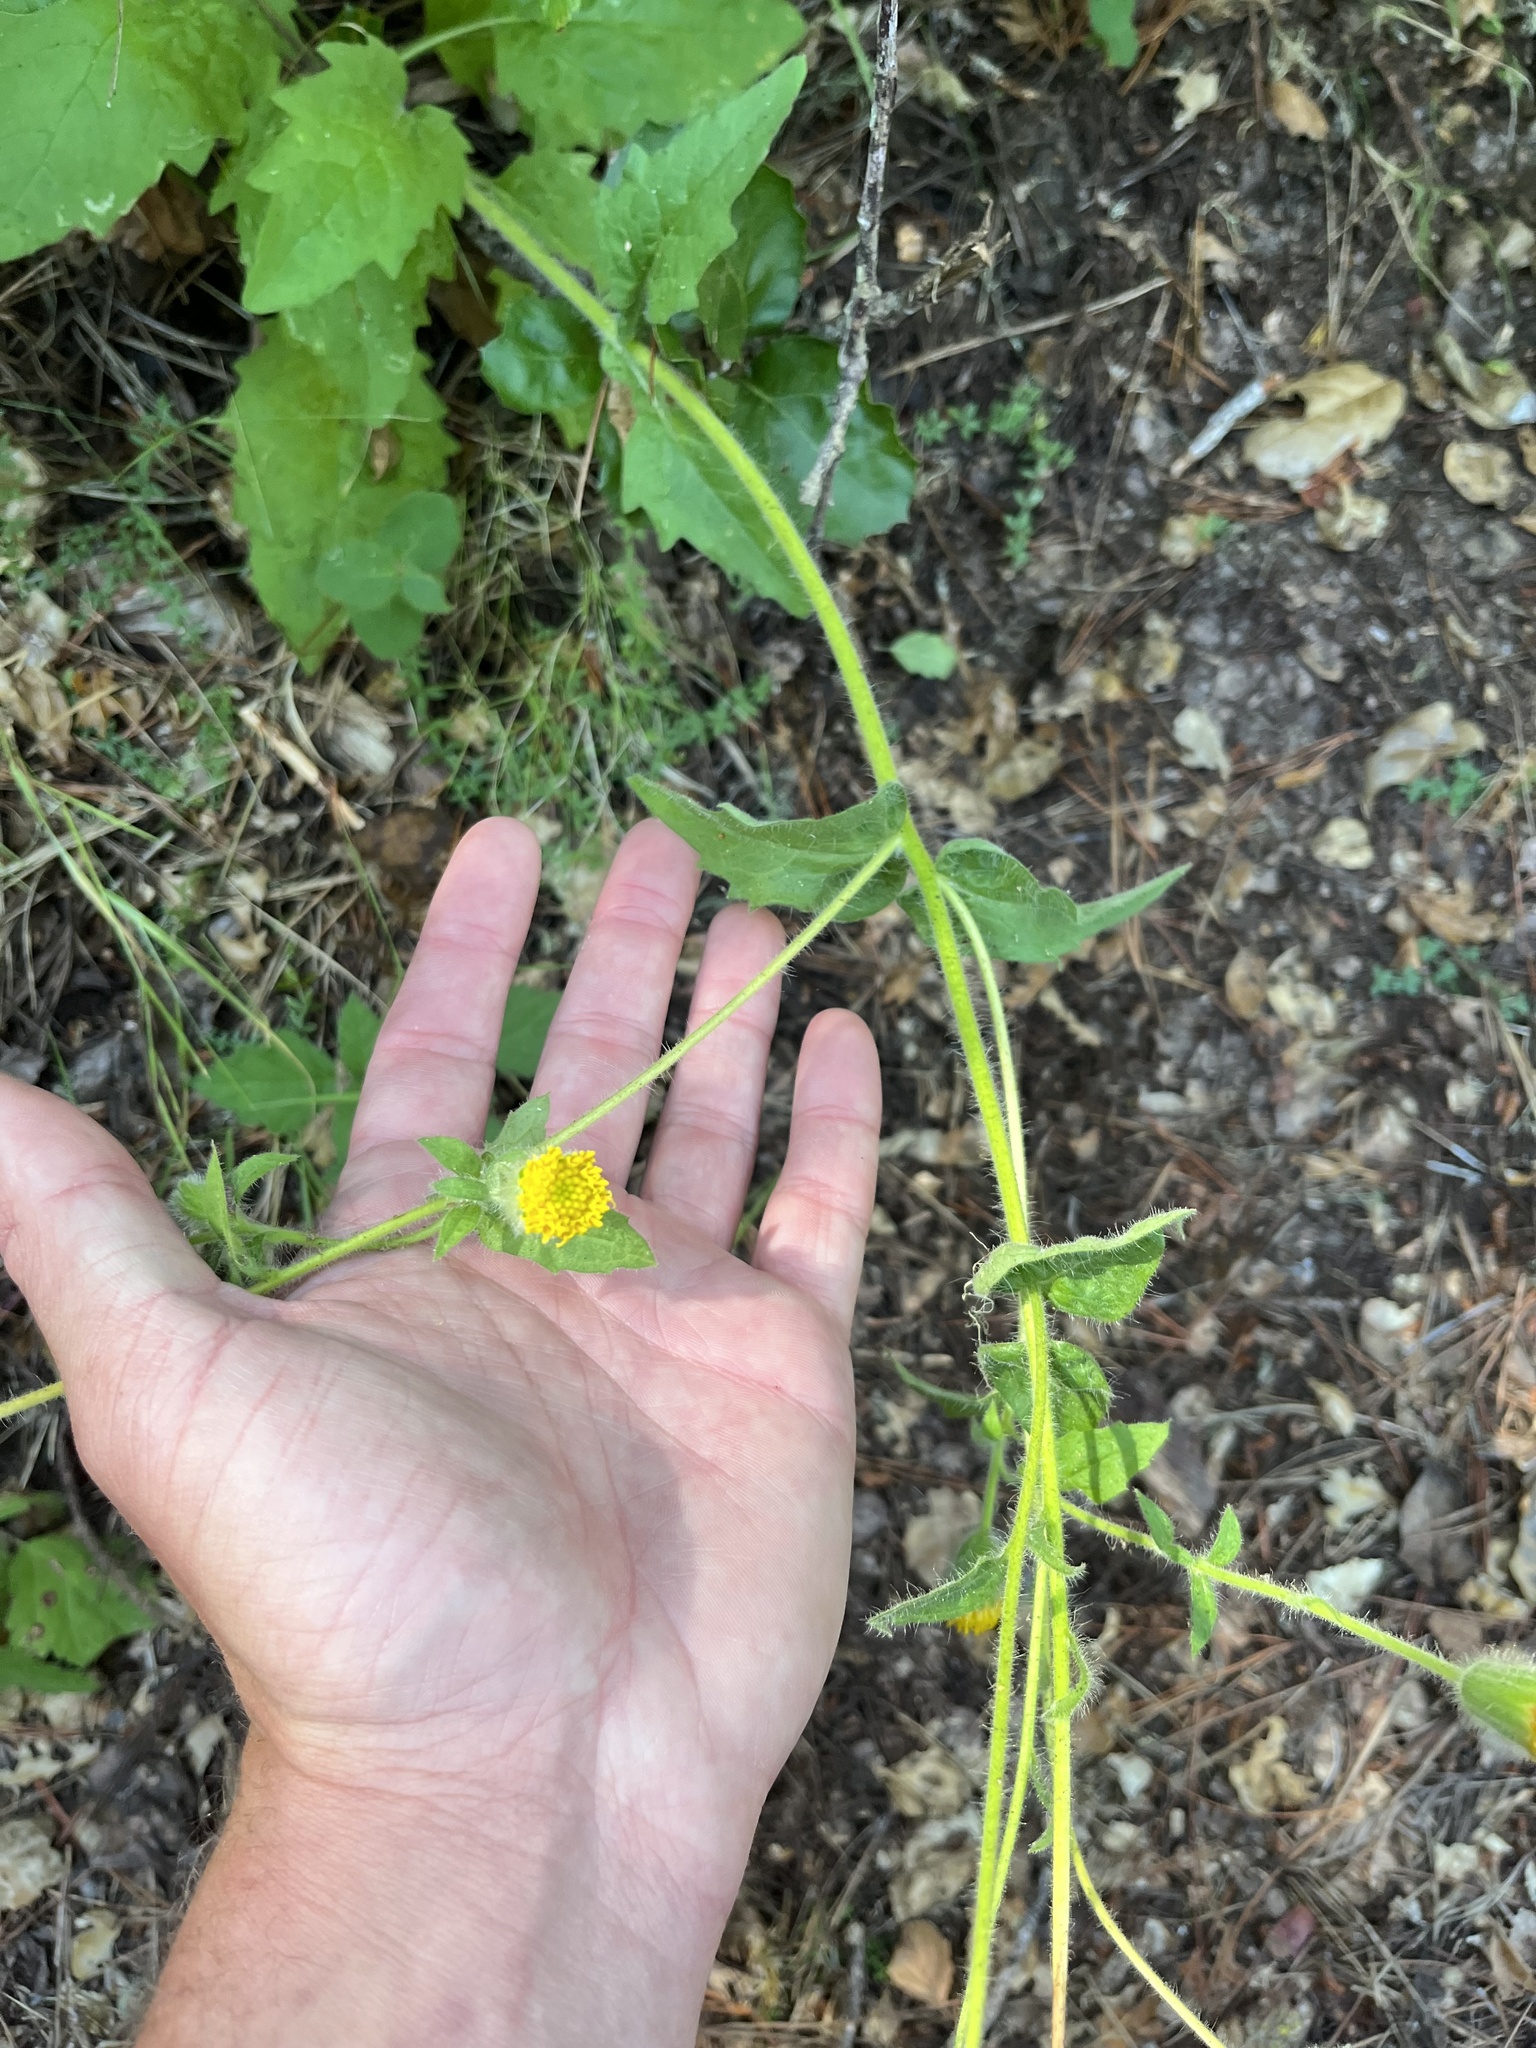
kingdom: Plantae
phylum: Tracheophyta
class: Magnoliopsida
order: Asterales
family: Asteraceae
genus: Arnica
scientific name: Arnica discoidea
